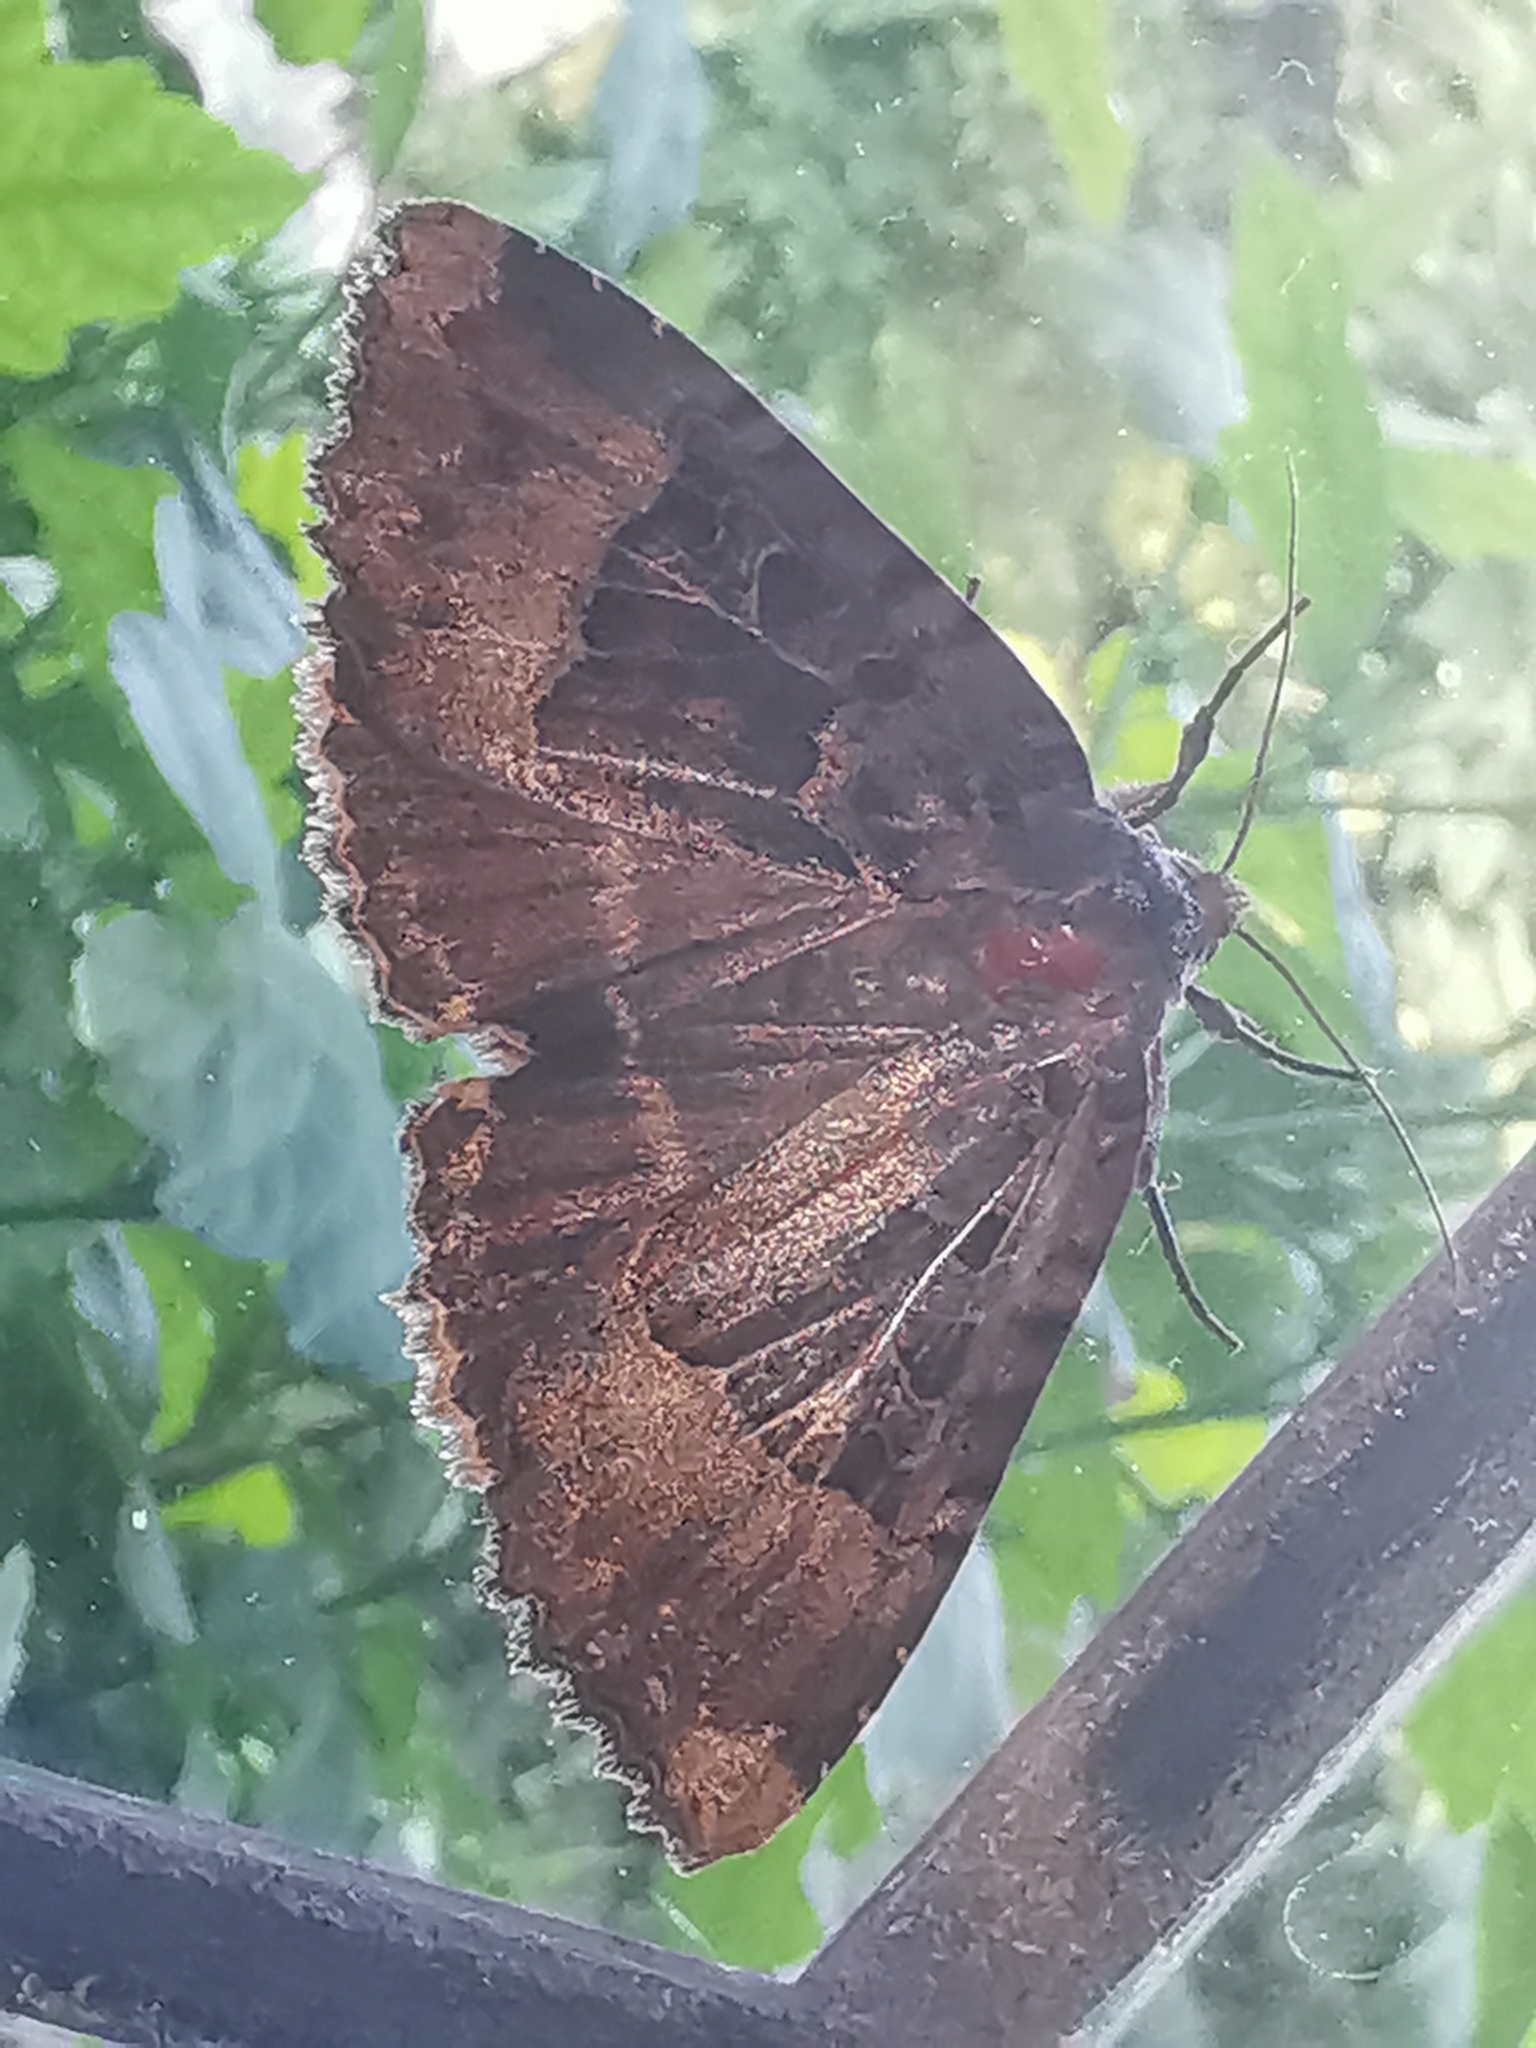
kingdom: Animalia
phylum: Arthropoda
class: Insecta
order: Lepidoptera
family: Noctuidae
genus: Mormo
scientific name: Mormo maura
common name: Old lady
